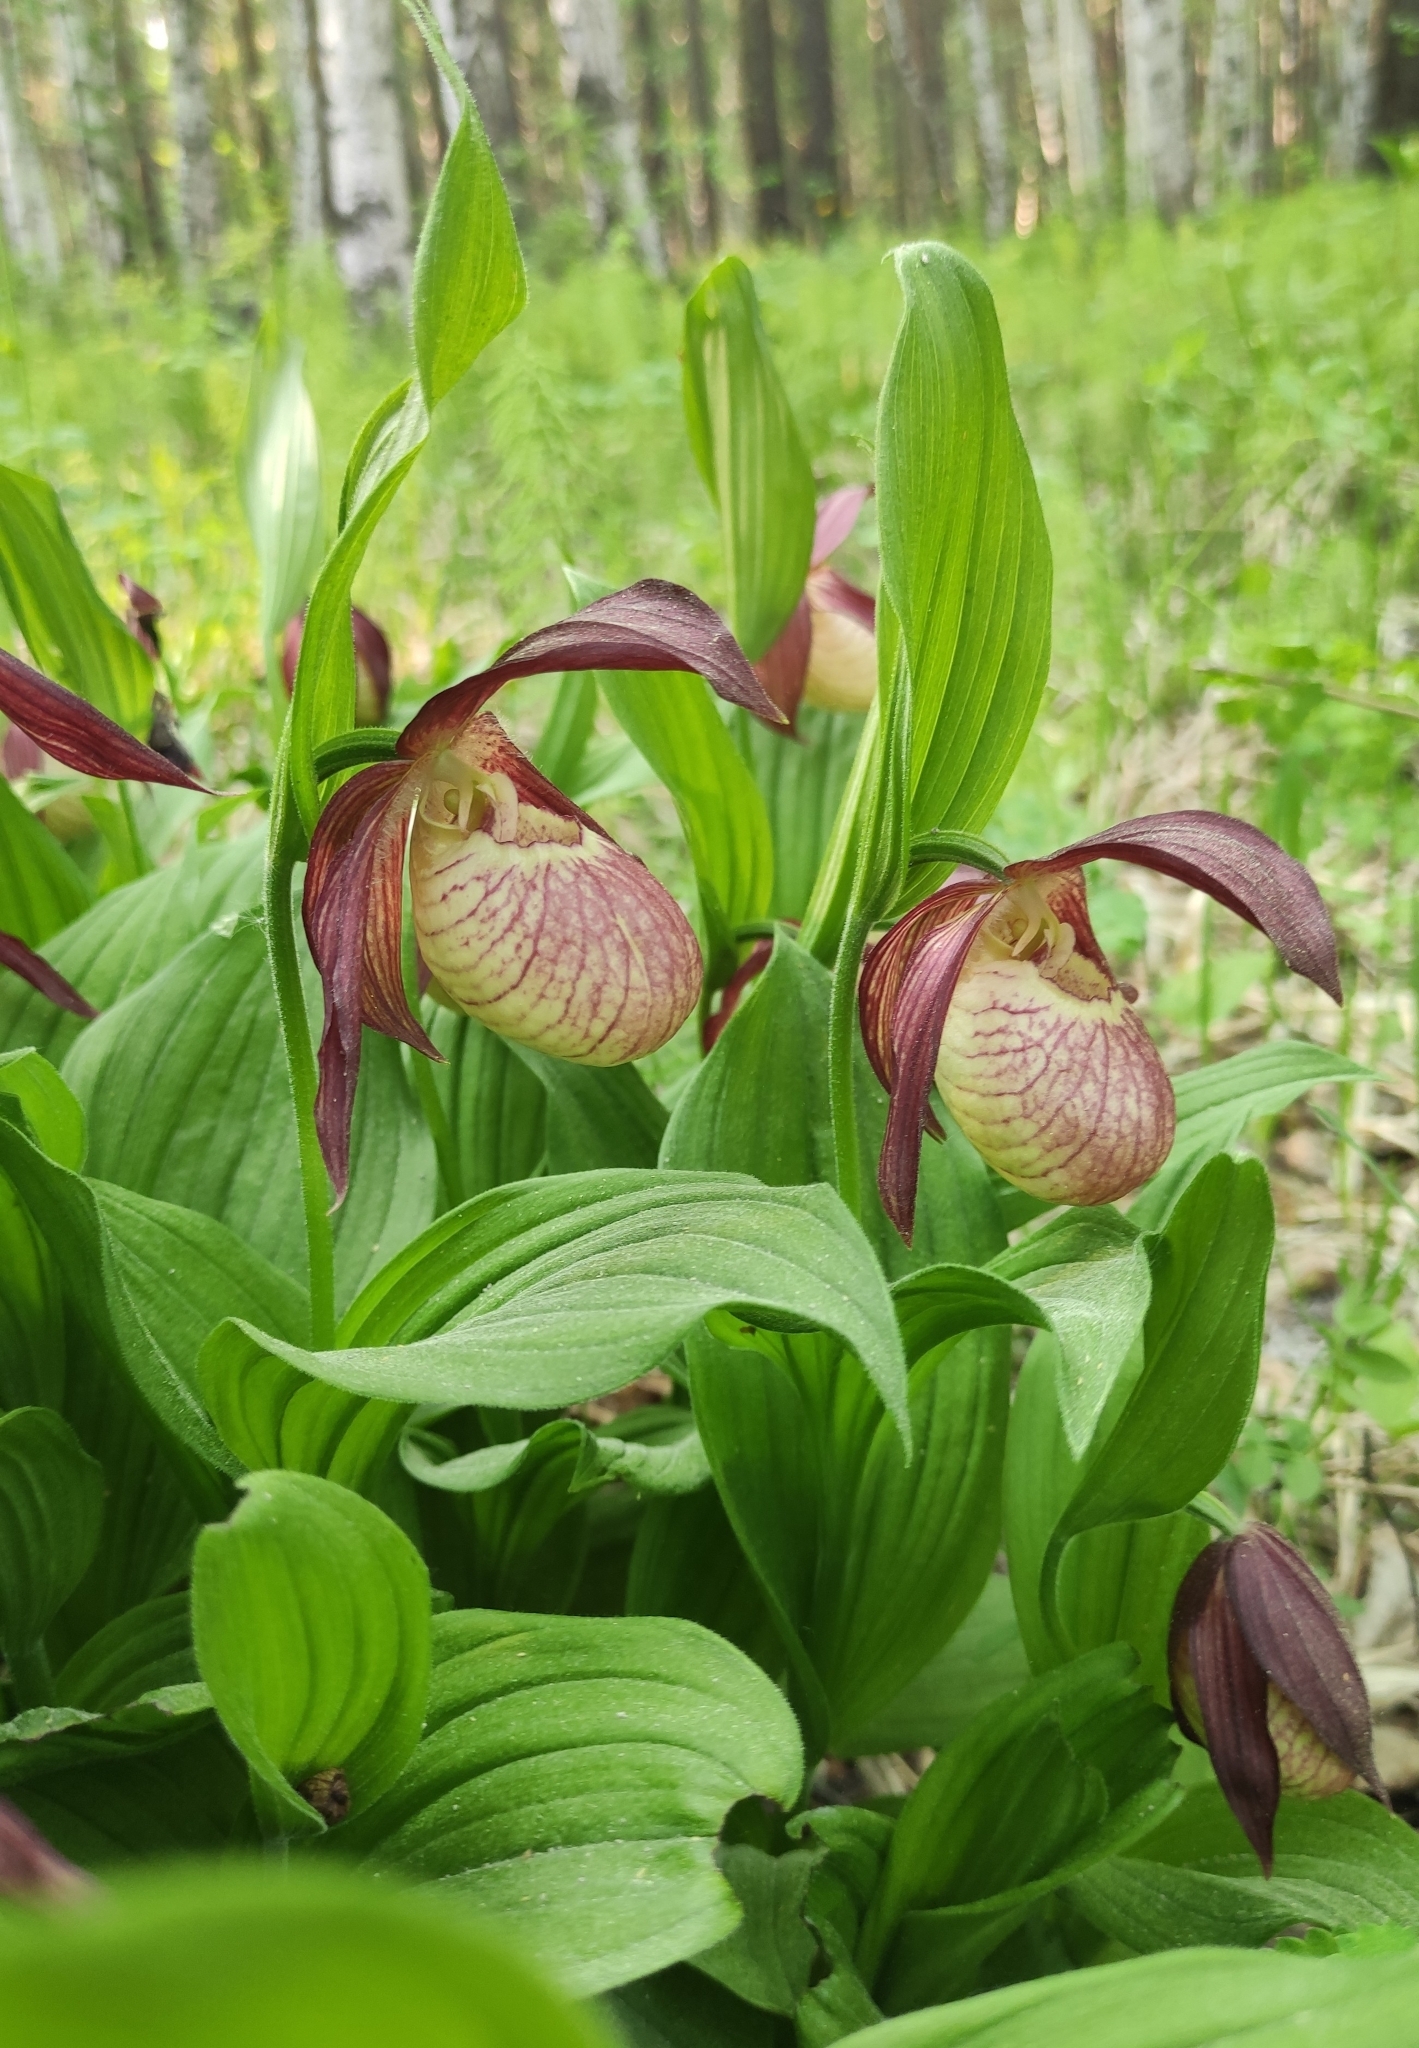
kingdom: Plantae
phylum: Tracheophyta
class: Liliopsida
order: Asparagales
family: Orchidaceae
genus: Cypripedium
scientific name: Cypripedium ventricosum
